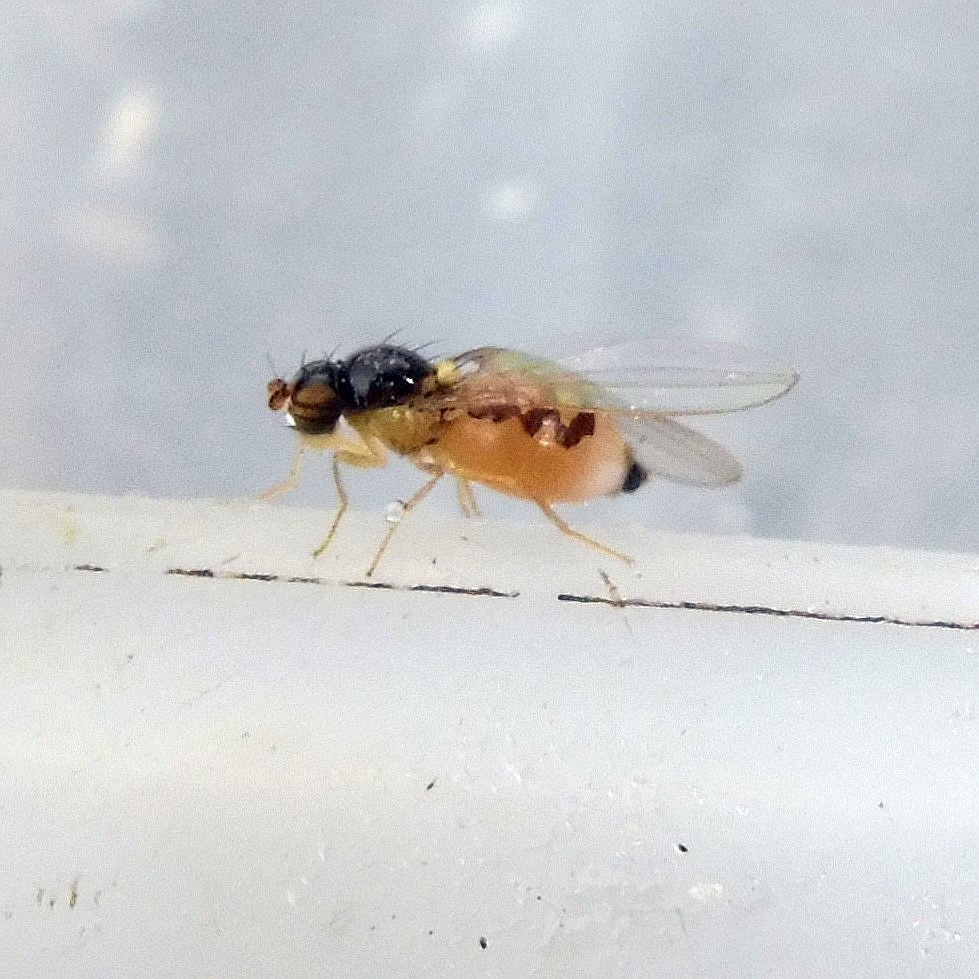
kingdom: Animalia
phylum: Arthropoda
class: Insecta
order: Diptera
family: Asteiidae
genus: Asteia
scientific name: Asteia amoena
